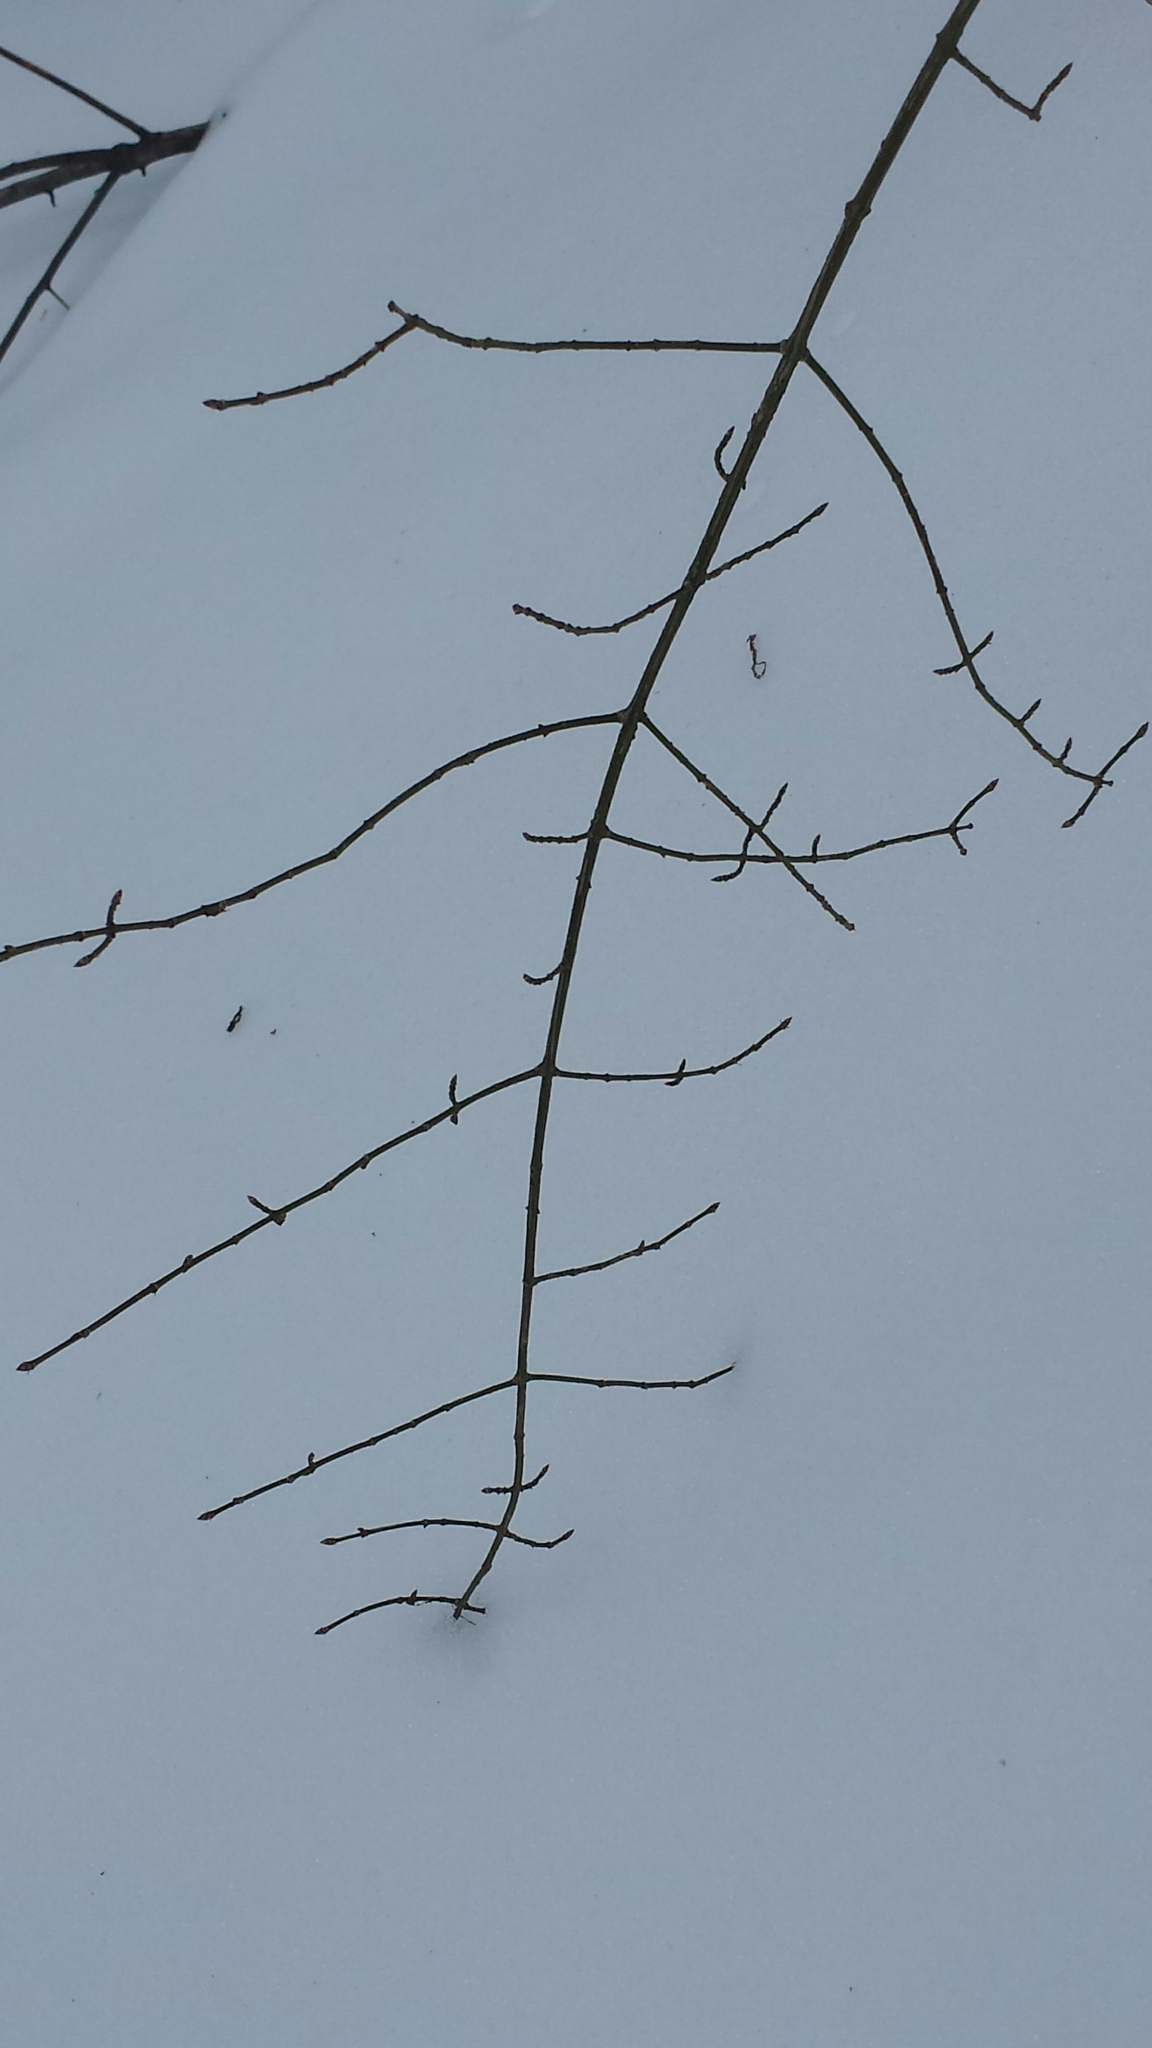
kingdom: Plantae
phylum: Tracheophyta
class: Magnoliopsida
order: Celastrales
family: Celastraceae
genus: Euonymus
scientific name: Euonymus alatus
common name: Winged euonymus
